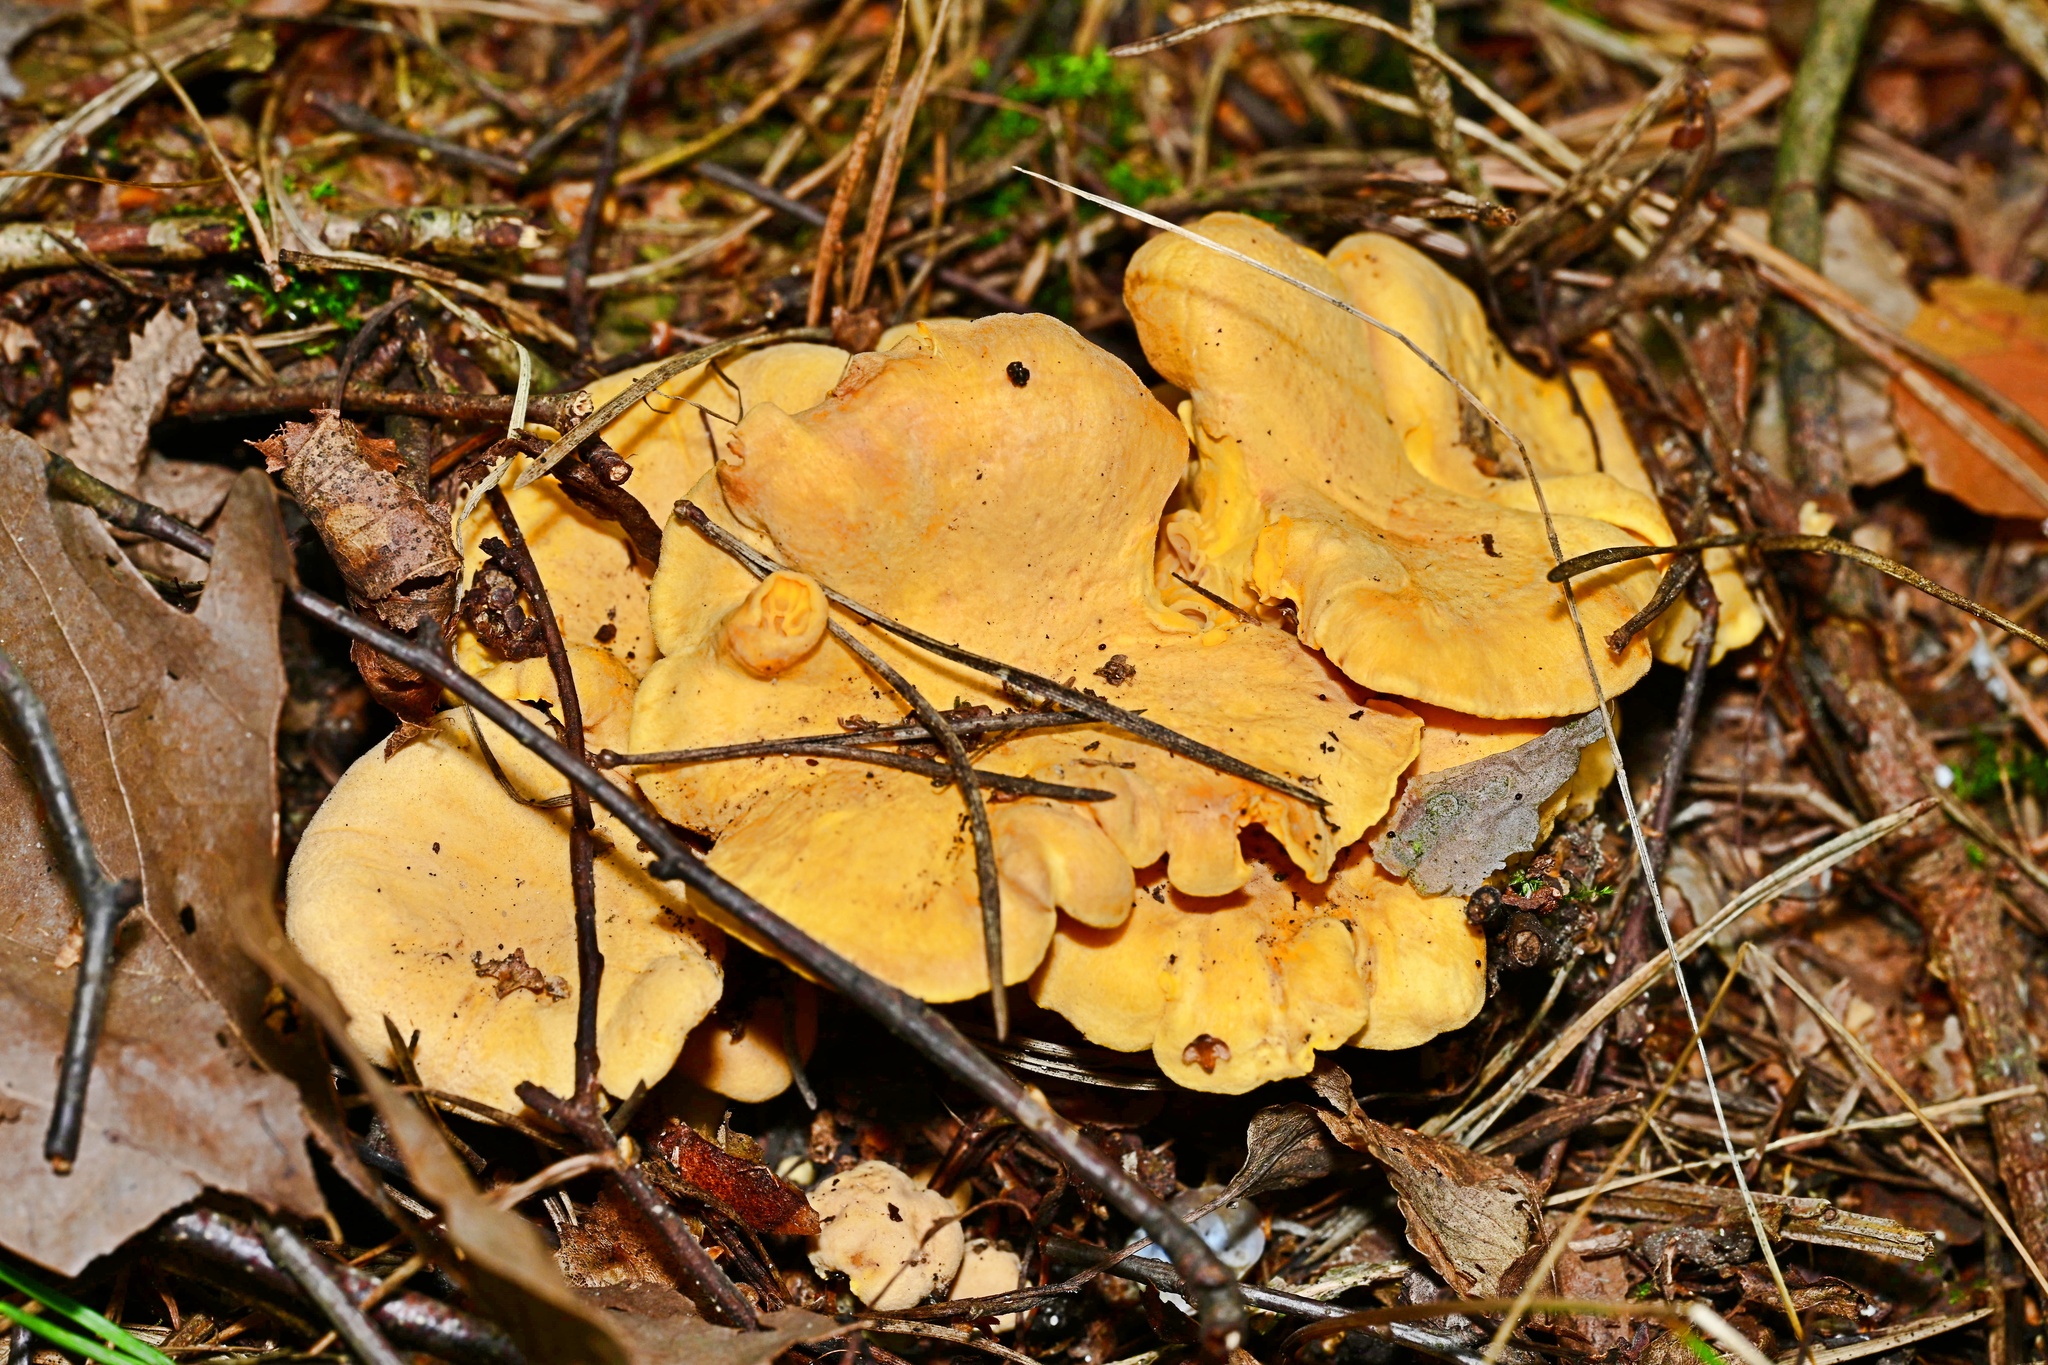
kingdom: Fungi
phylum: Basidiomycota
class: Agaricomycetes
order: Cantharellales
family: Hydnaceae
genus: Cantharellus
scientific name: Cantharellus cibarius
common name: Chanterelle
